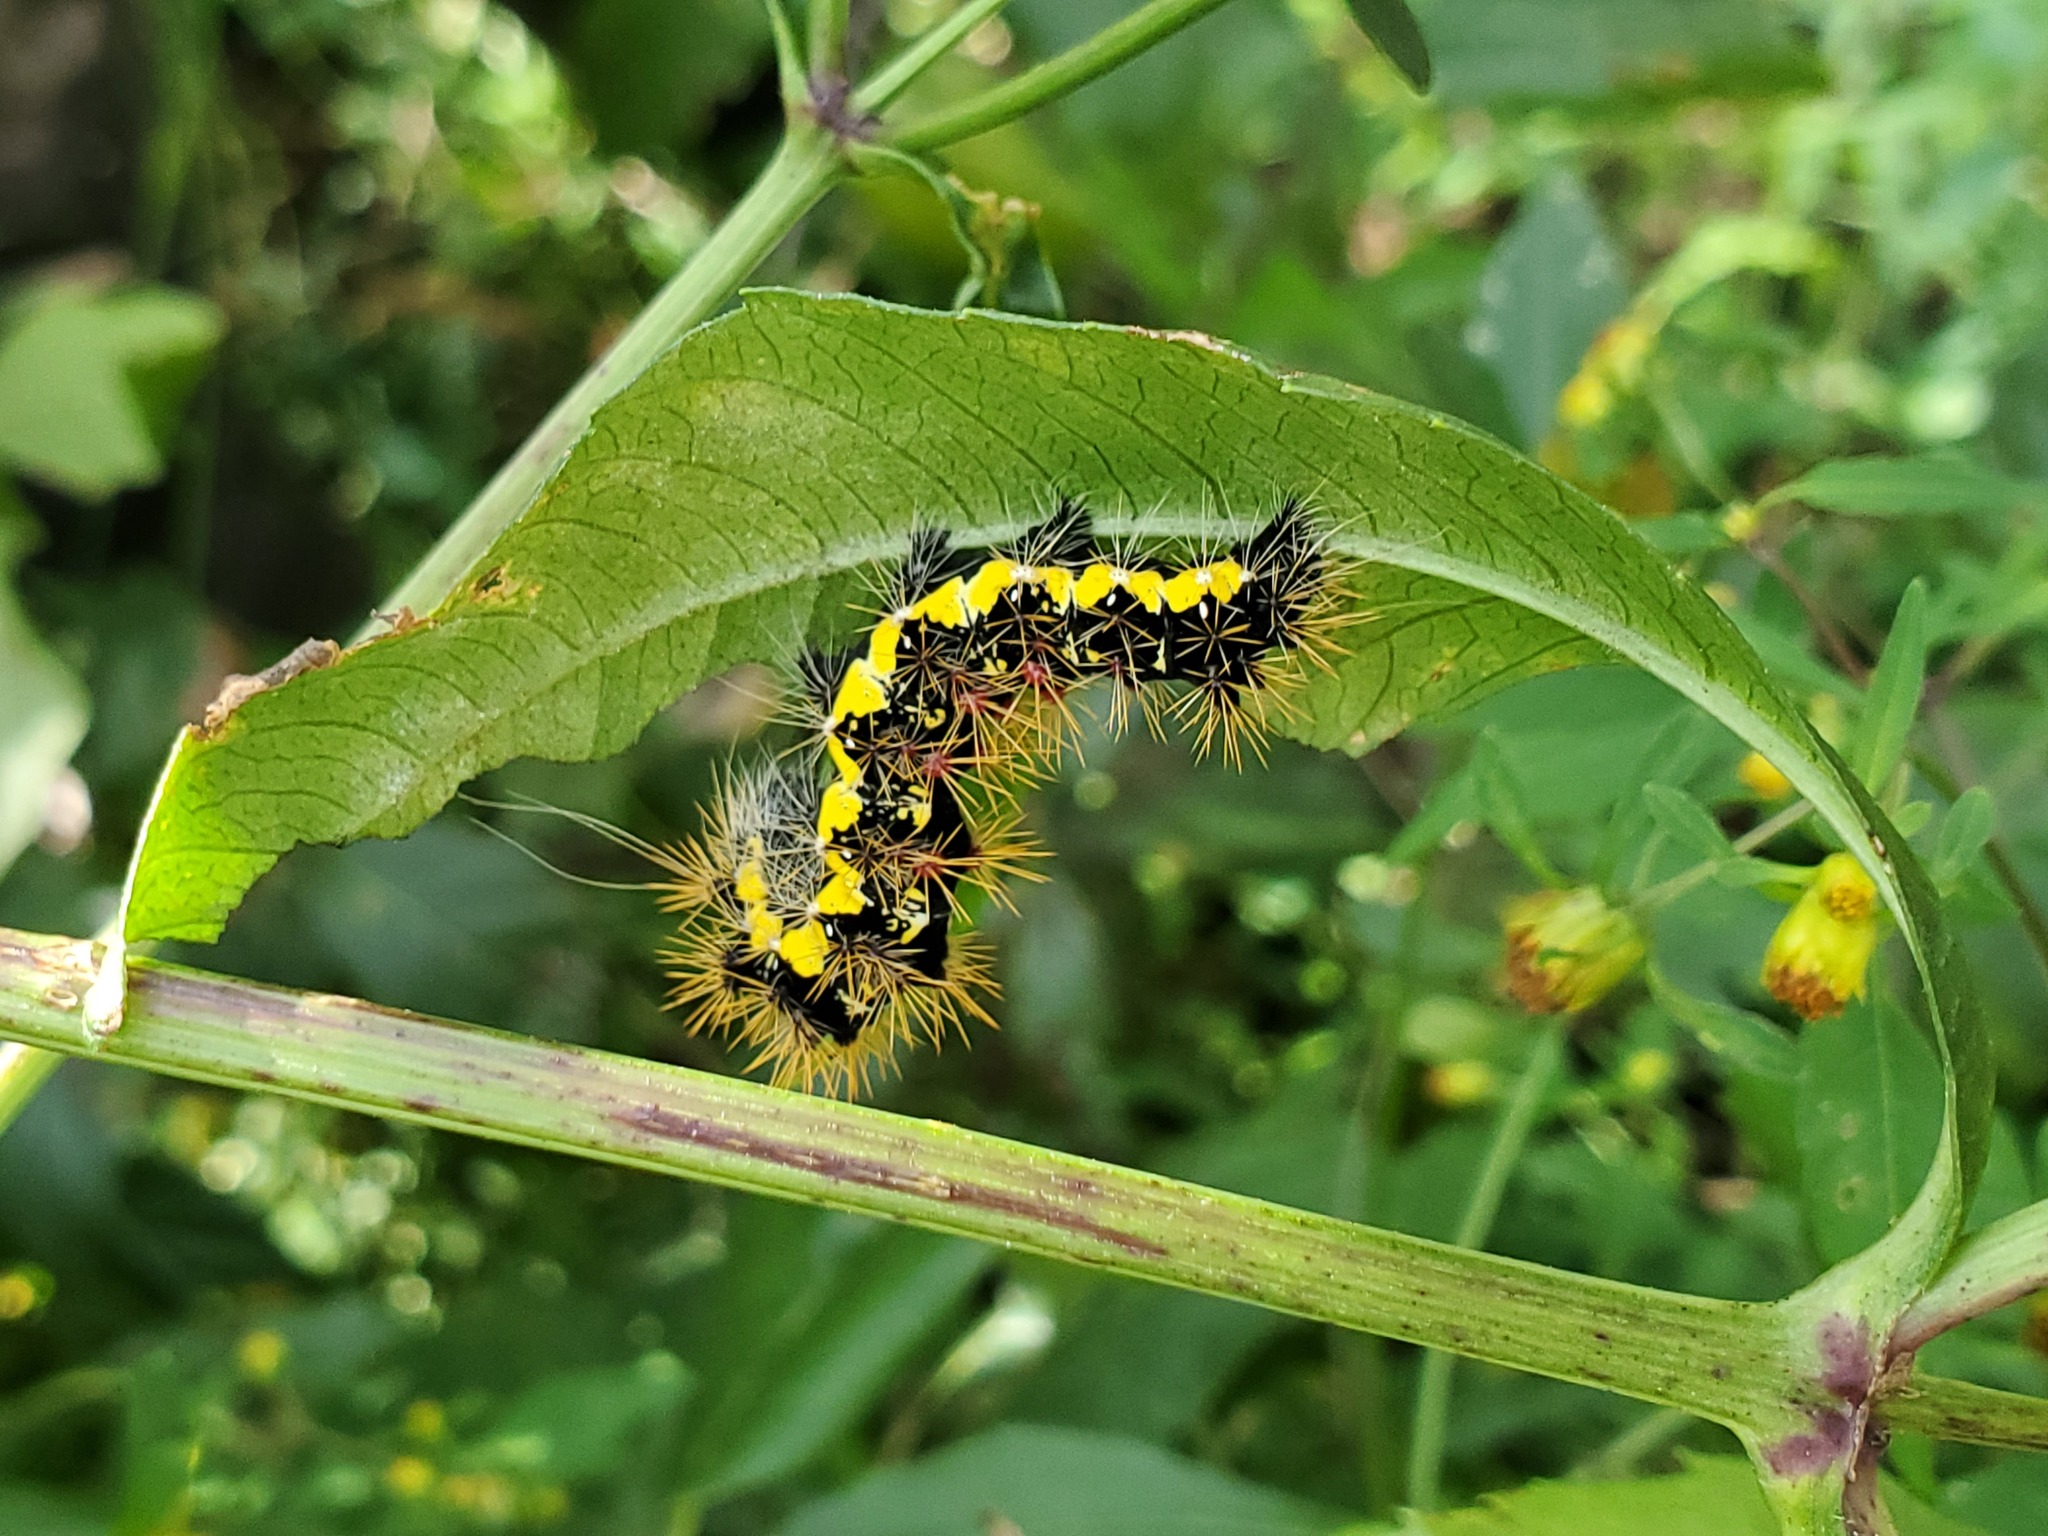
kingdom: Animalia
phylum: Arthropoda
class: Insecta
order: Lepidoptera
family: Noctuidae
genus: Acronicta
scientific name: Acronicta oblinita
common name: Smeared dagger
